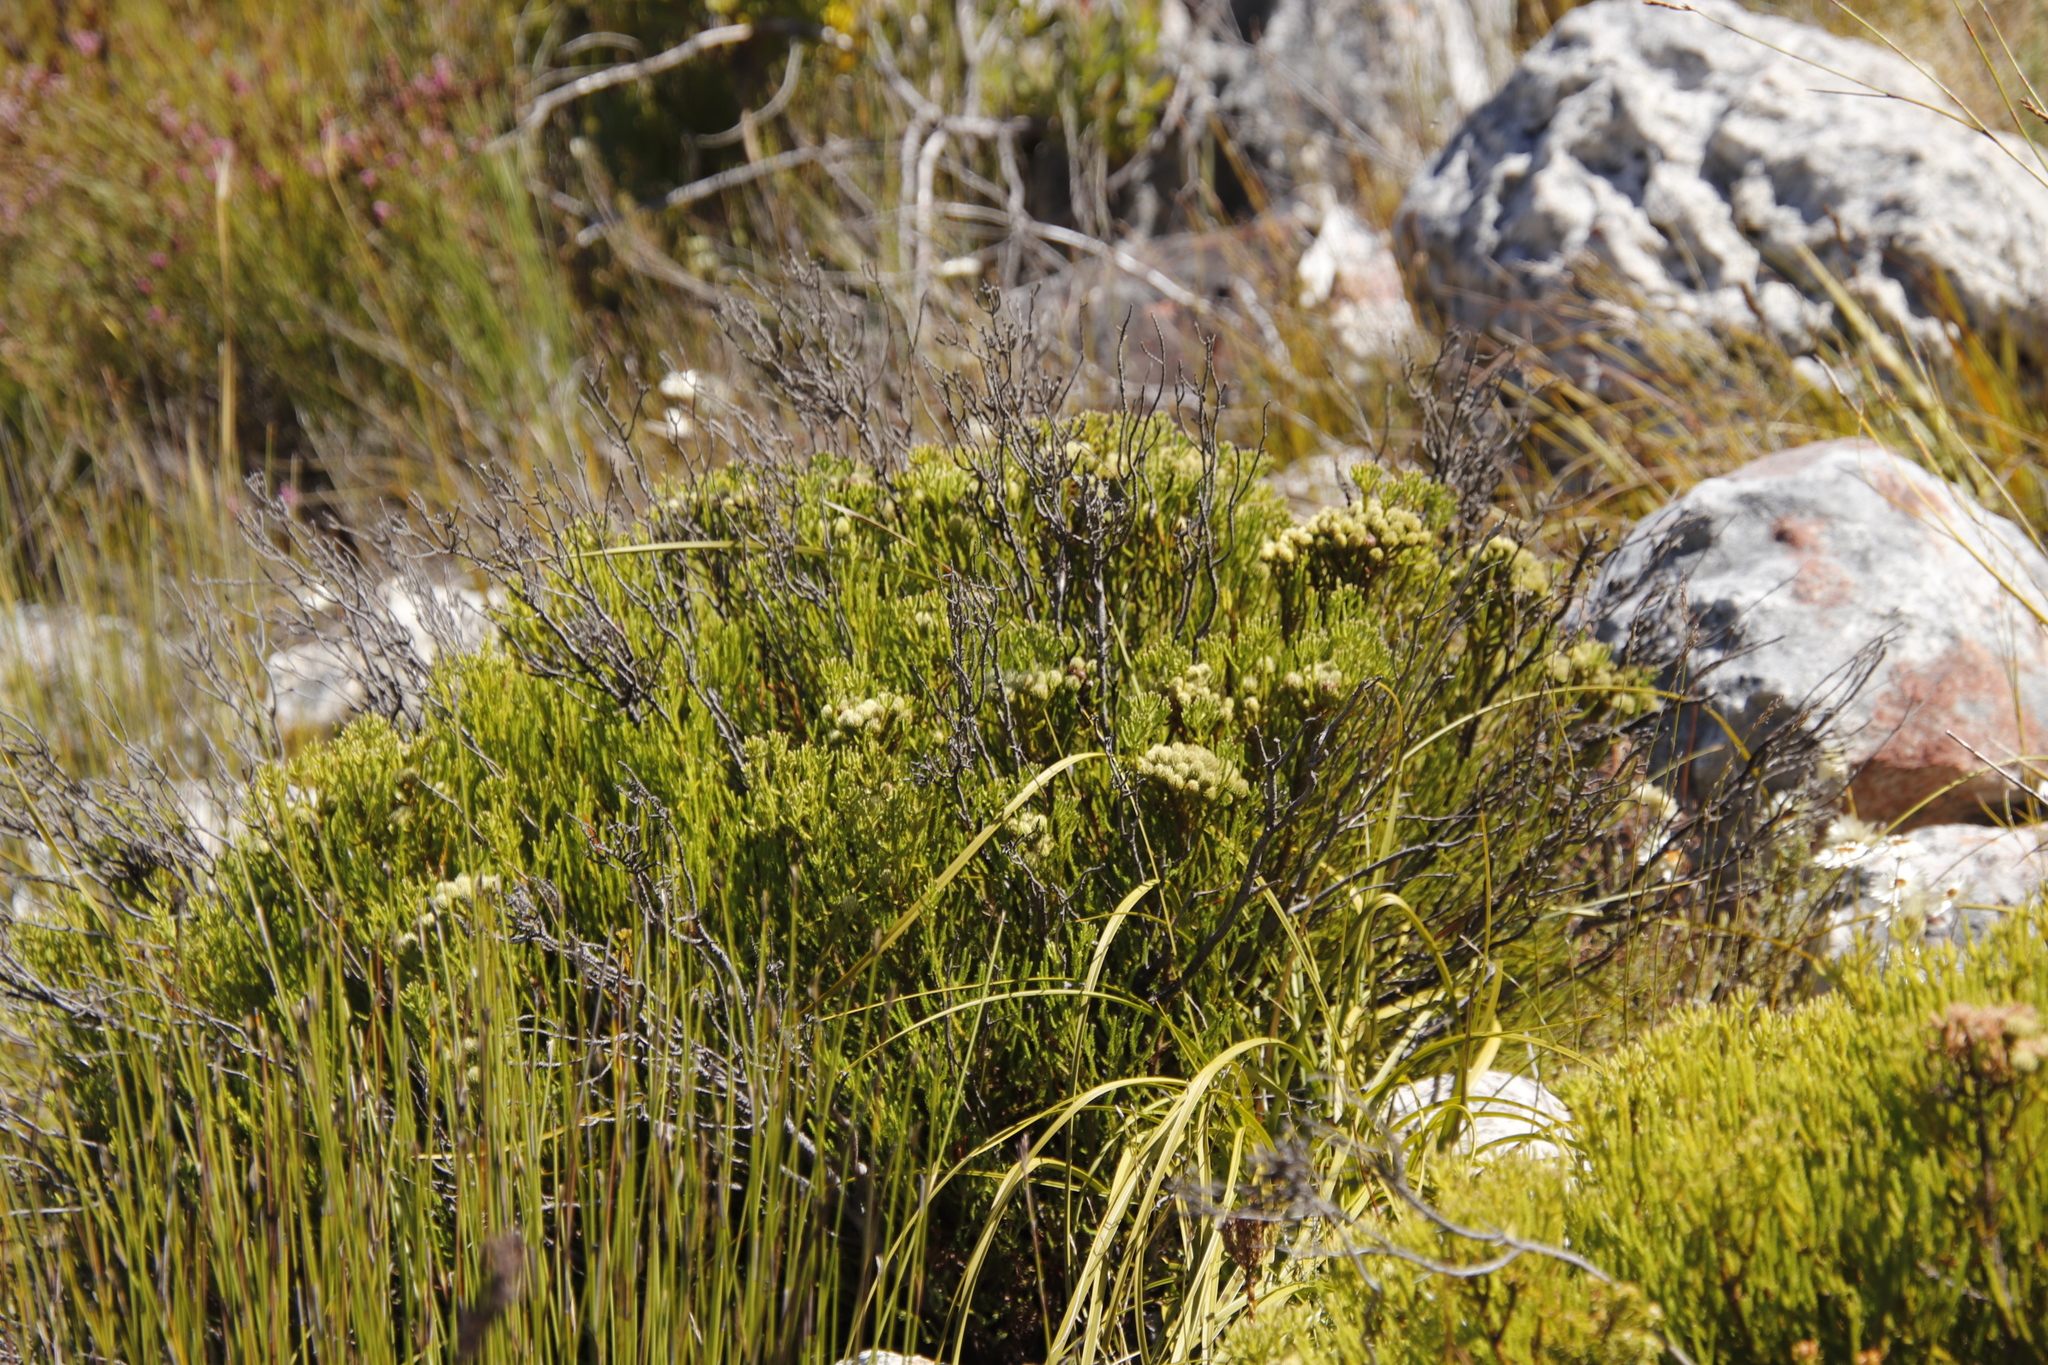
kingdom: Plantae
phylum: Tracheophyta
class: Magnoliopsida
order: Bruniales
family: Bruniaceae
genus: Brunia
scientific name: Brunia paleacea
